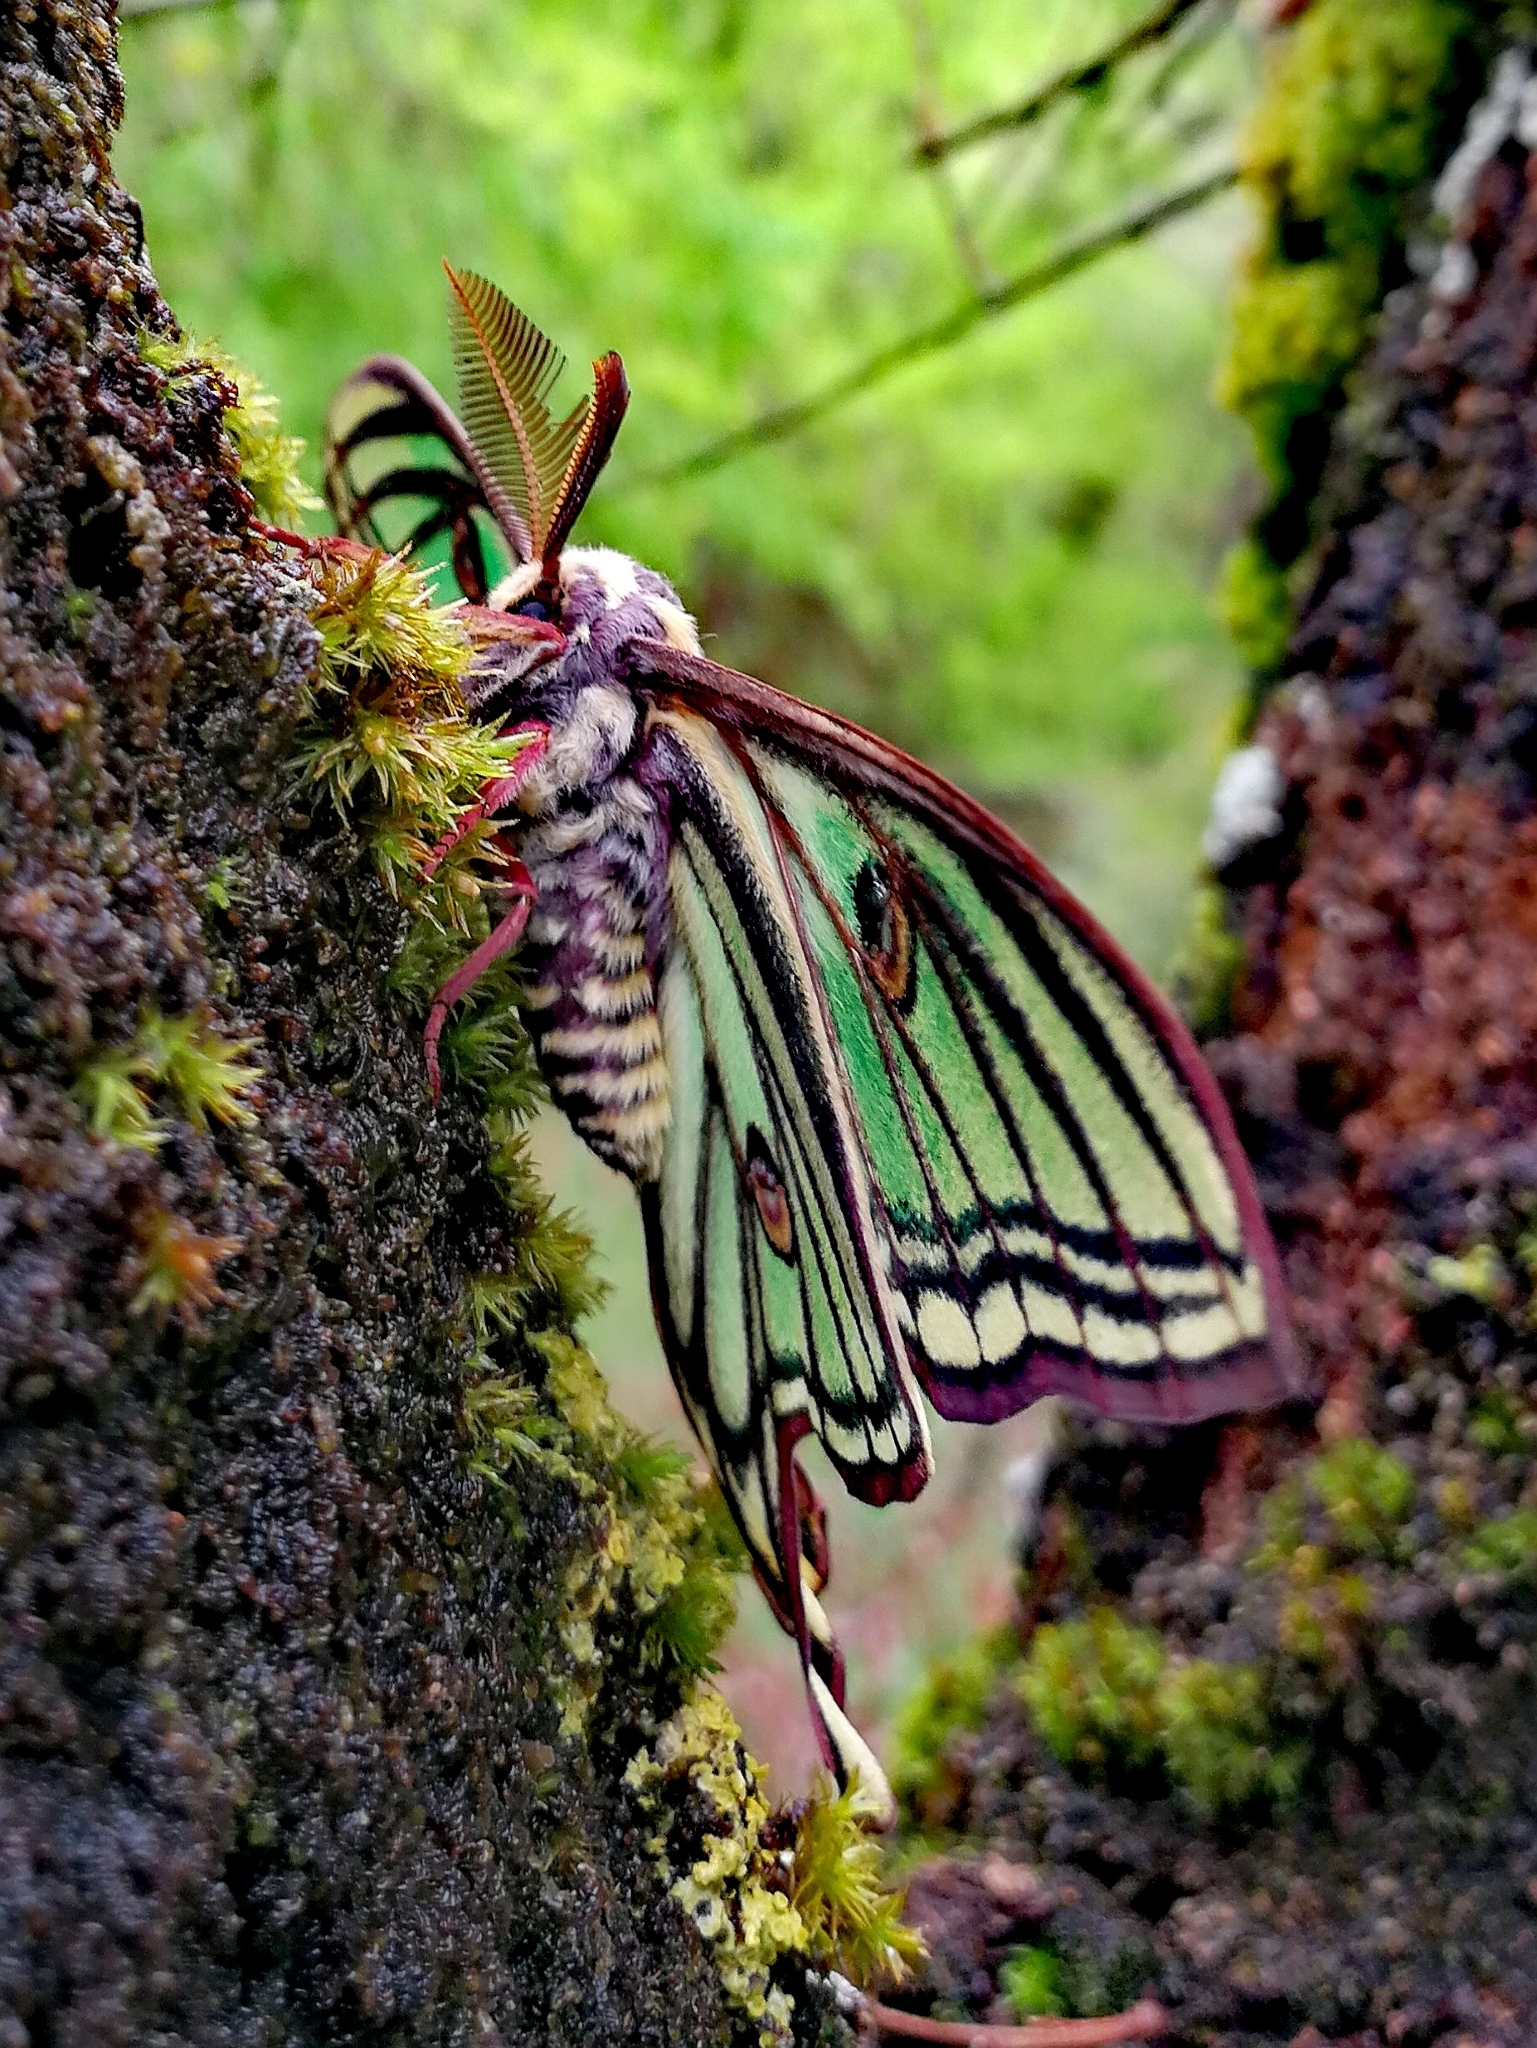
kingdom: Animalia
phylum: Arthropoda
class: Insecta
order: Lepidoptera
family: Saturniidae
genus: Graellsia
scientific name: Graellsia isabellae
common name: Spanish moon moth
